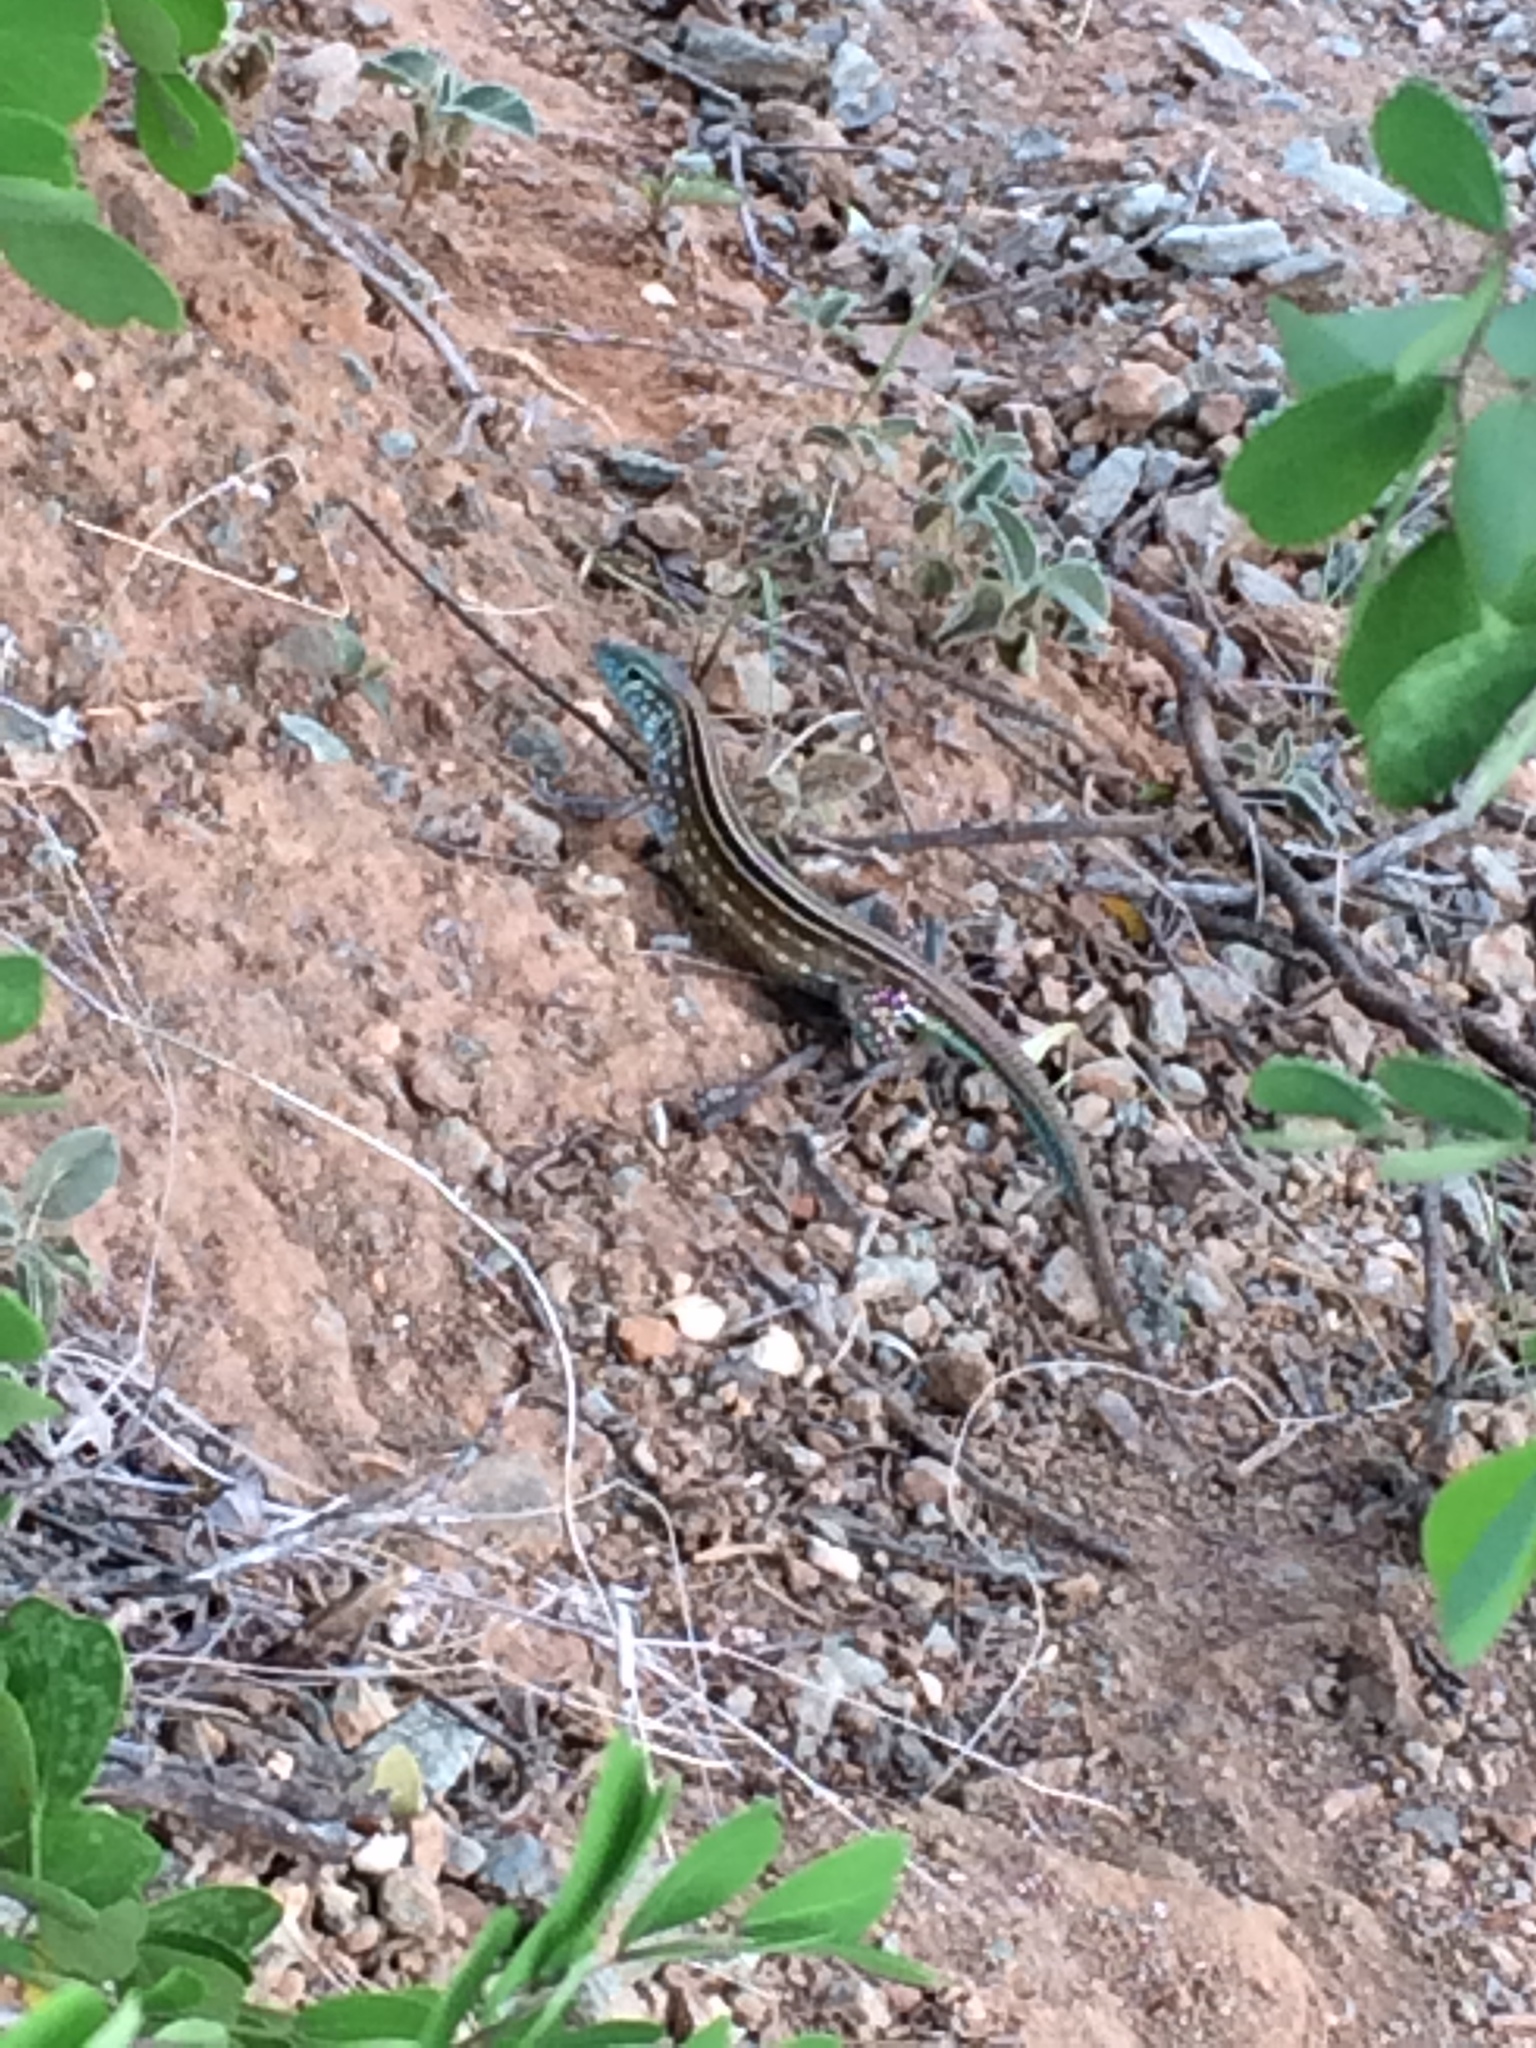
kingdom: Animalia
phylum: Chordata
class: Squamata
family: Teiidae
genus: Cnemidophorus
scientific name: Cnemidophorus gaigei
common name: Gaige’s rainbow lizard
